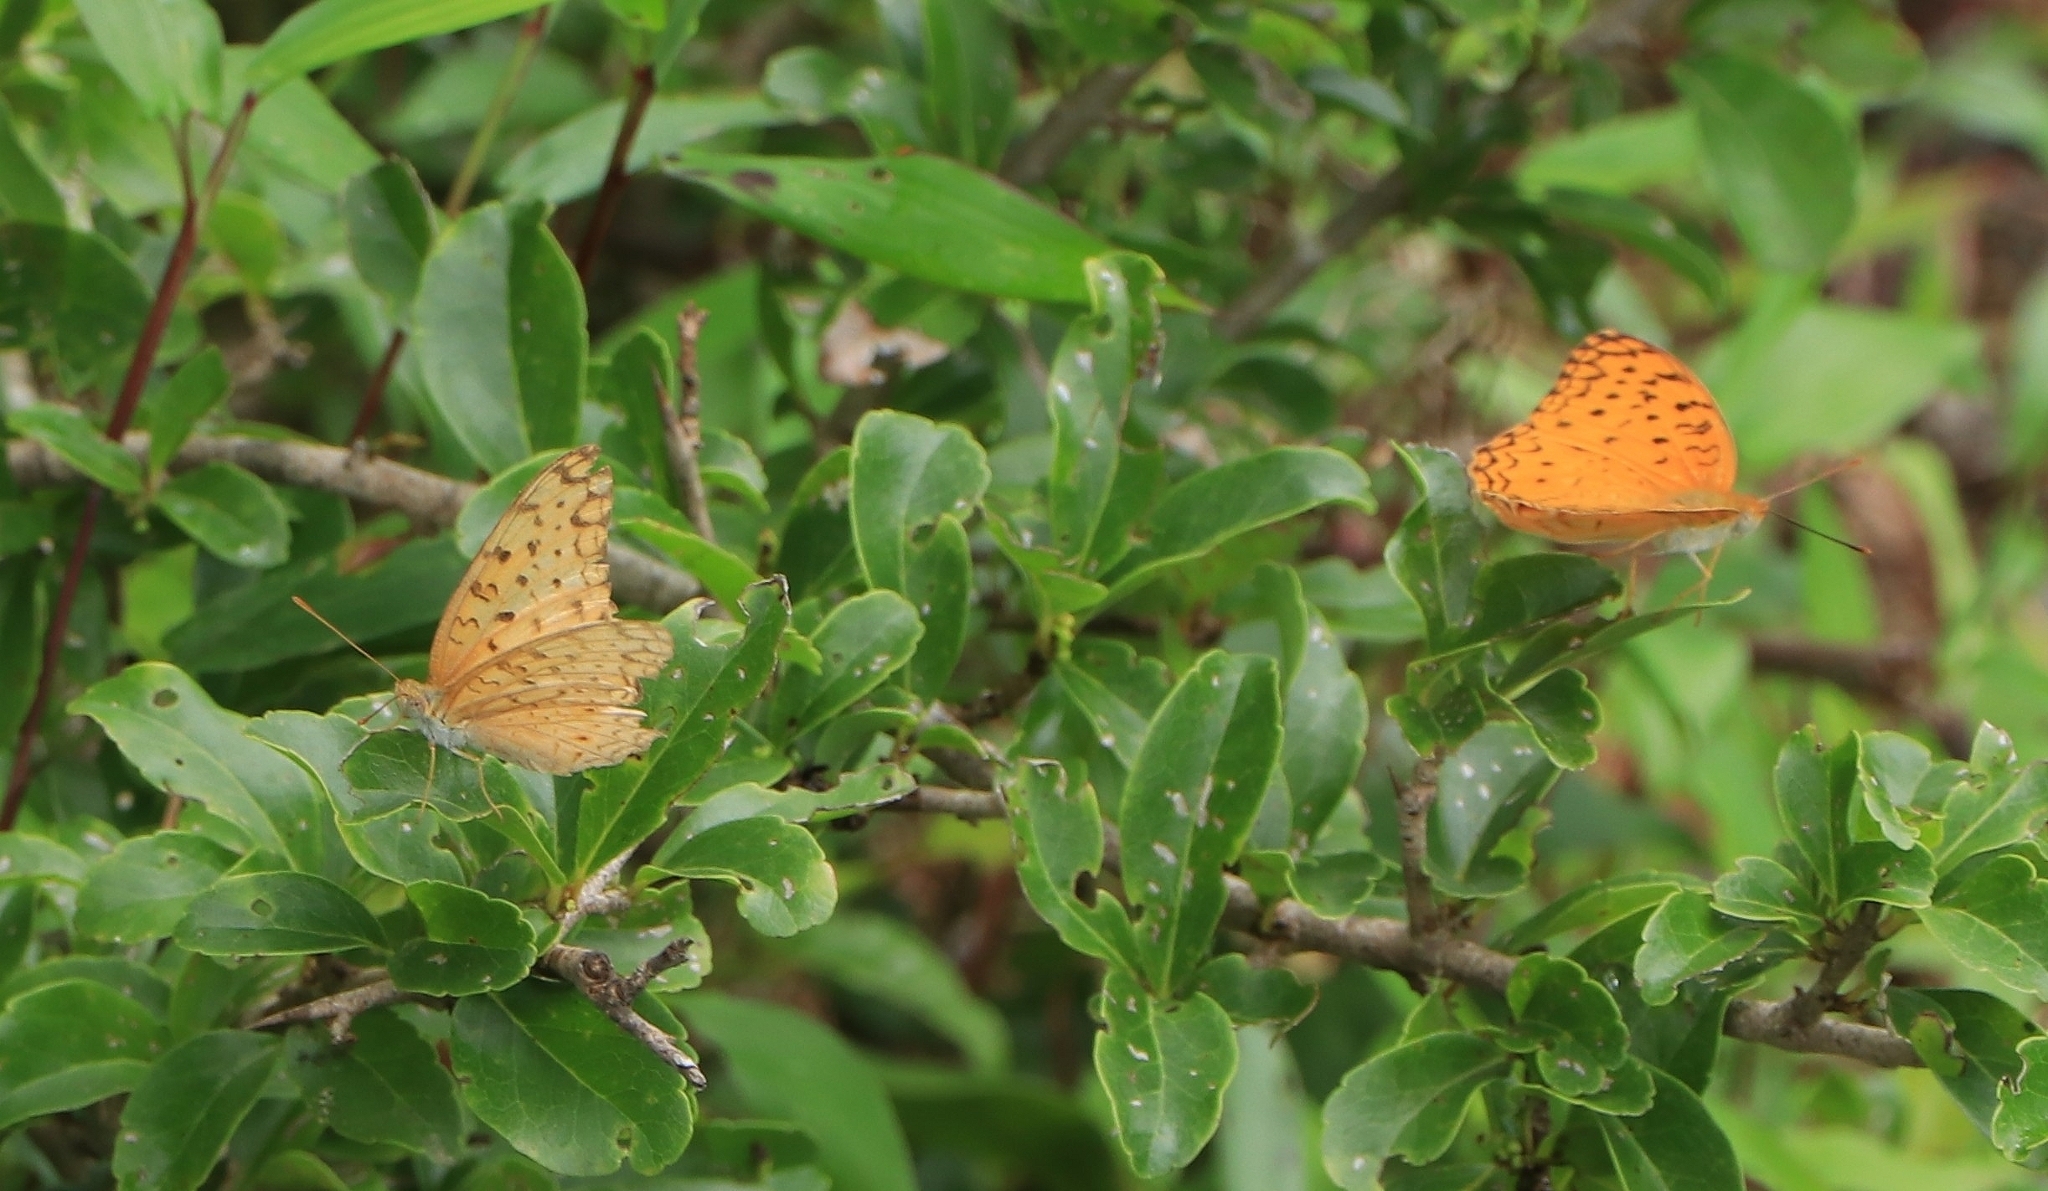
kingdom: Animalia
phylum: Arthropoda
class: Insecta
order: Lepidoptera
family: Nymphalidae
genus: Phalanta
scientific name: Phalanta phalantha
